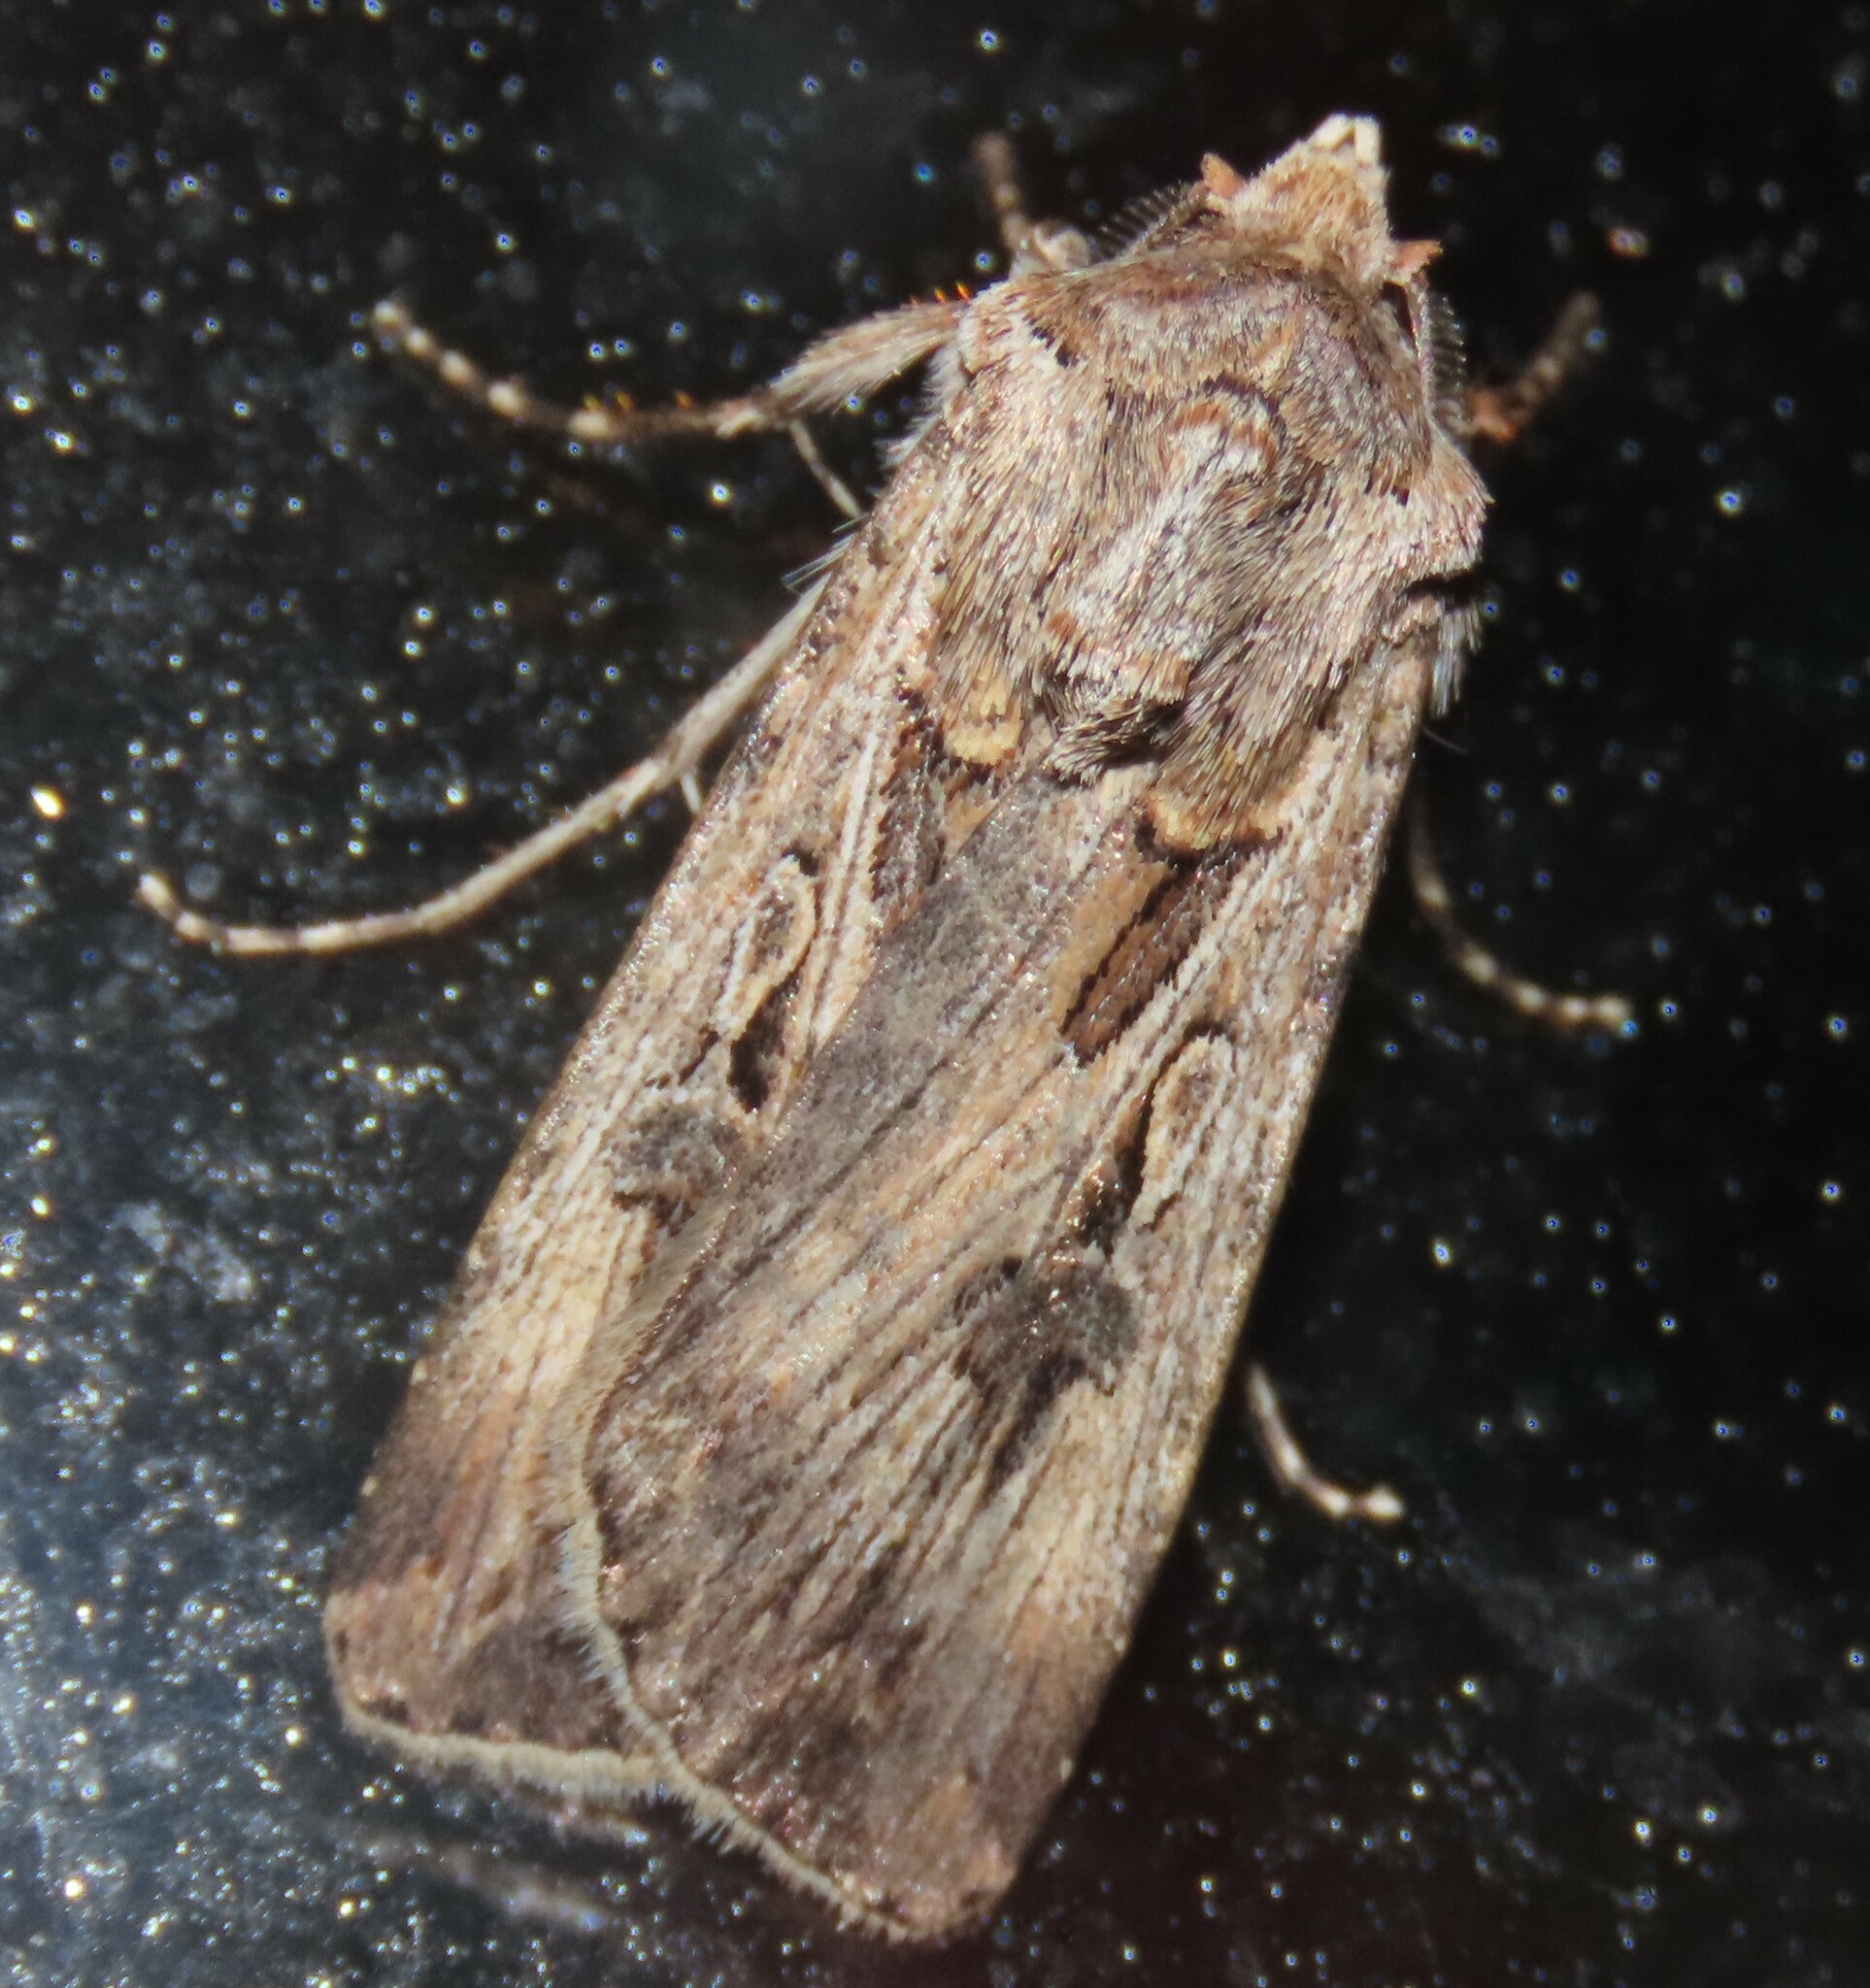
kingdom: Animalia
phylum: Arthropoda
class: Insecta
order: Lepidoptera
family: Noctuidae
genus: Agrotis
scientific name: Agrotis munda
